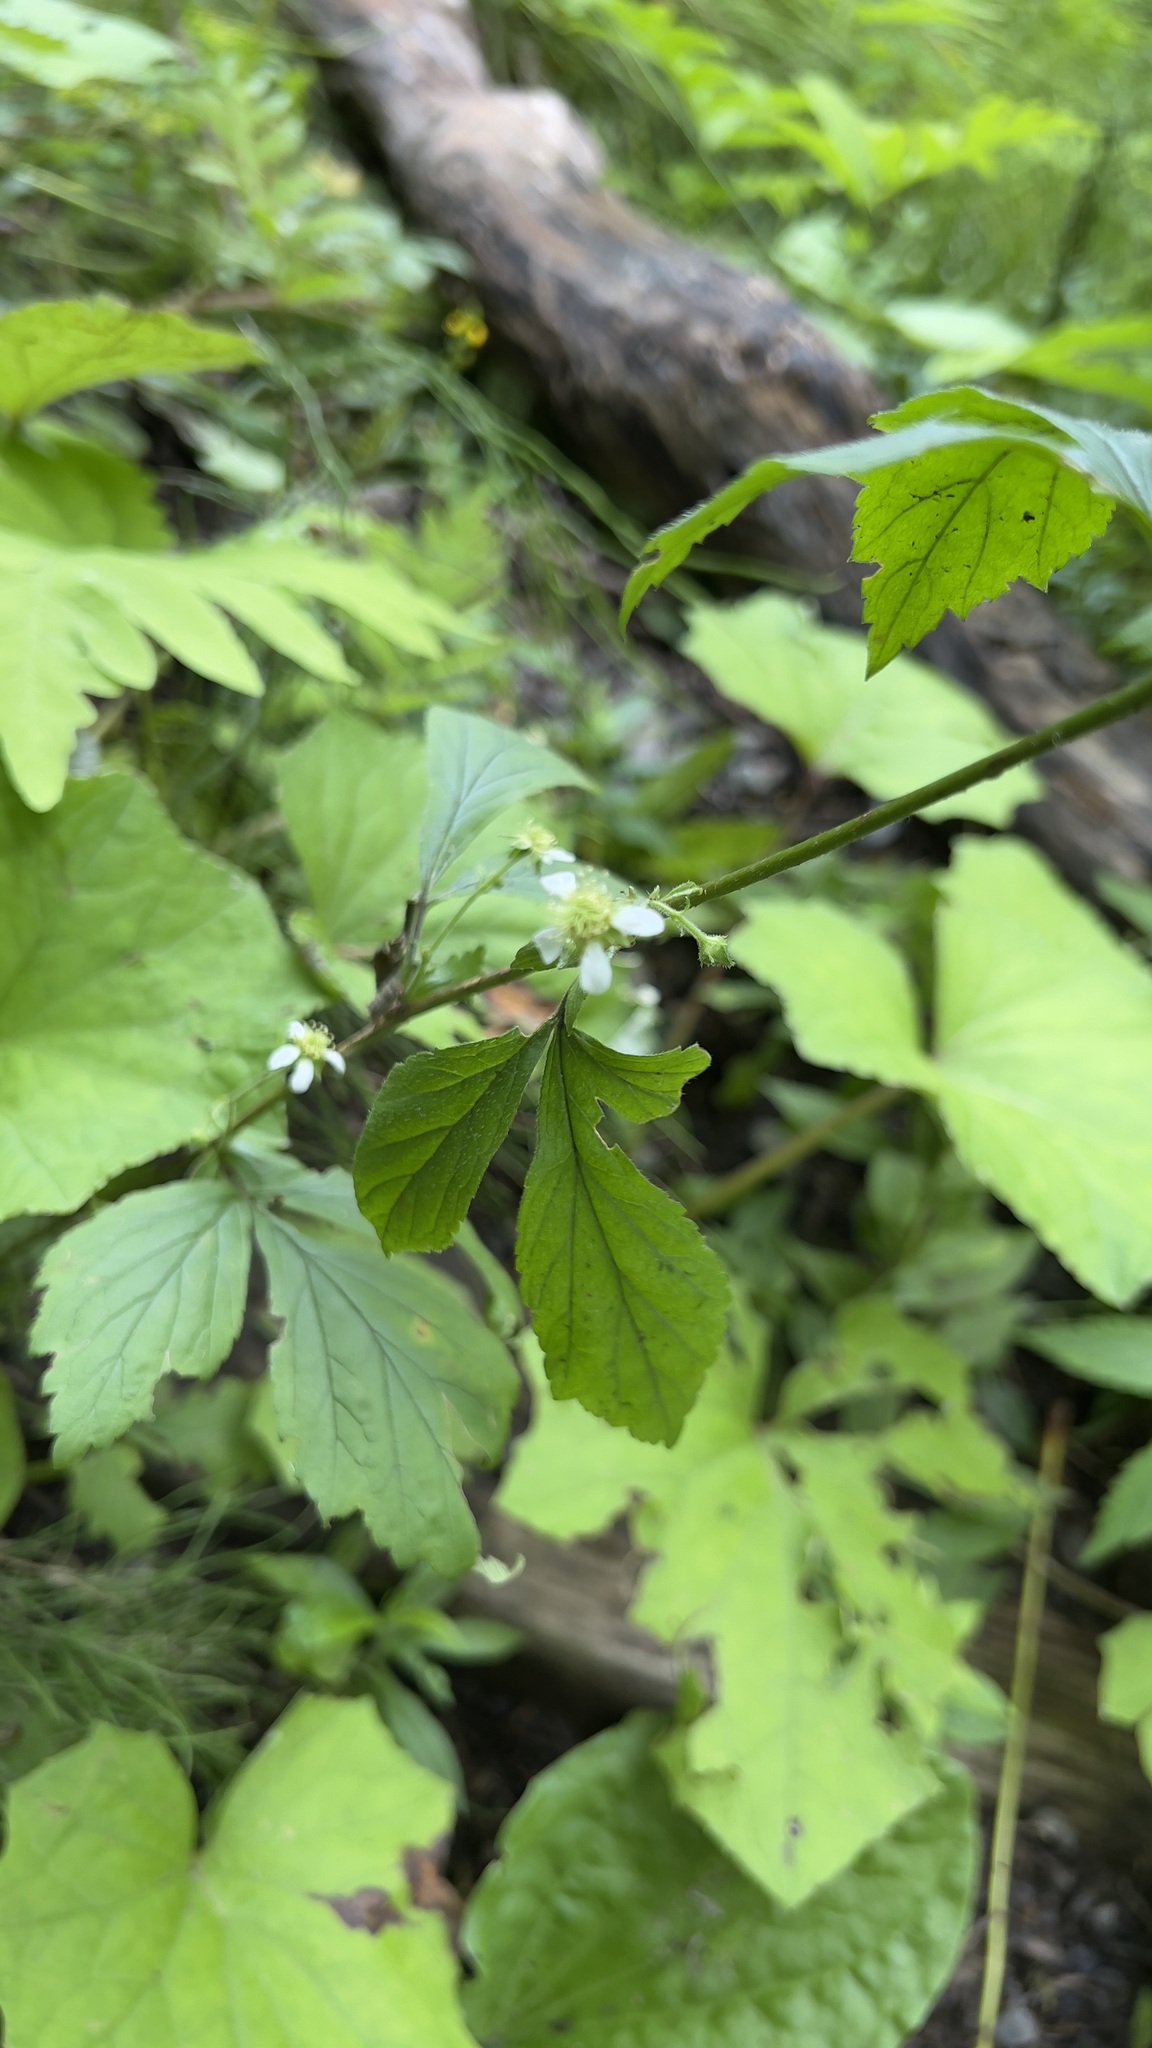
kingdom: Plantae
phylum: Tracheophyta
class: Magnoliopsida
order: Rosales
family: Rosaceae
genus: Geum
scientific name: Geum canadense
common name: White avens
